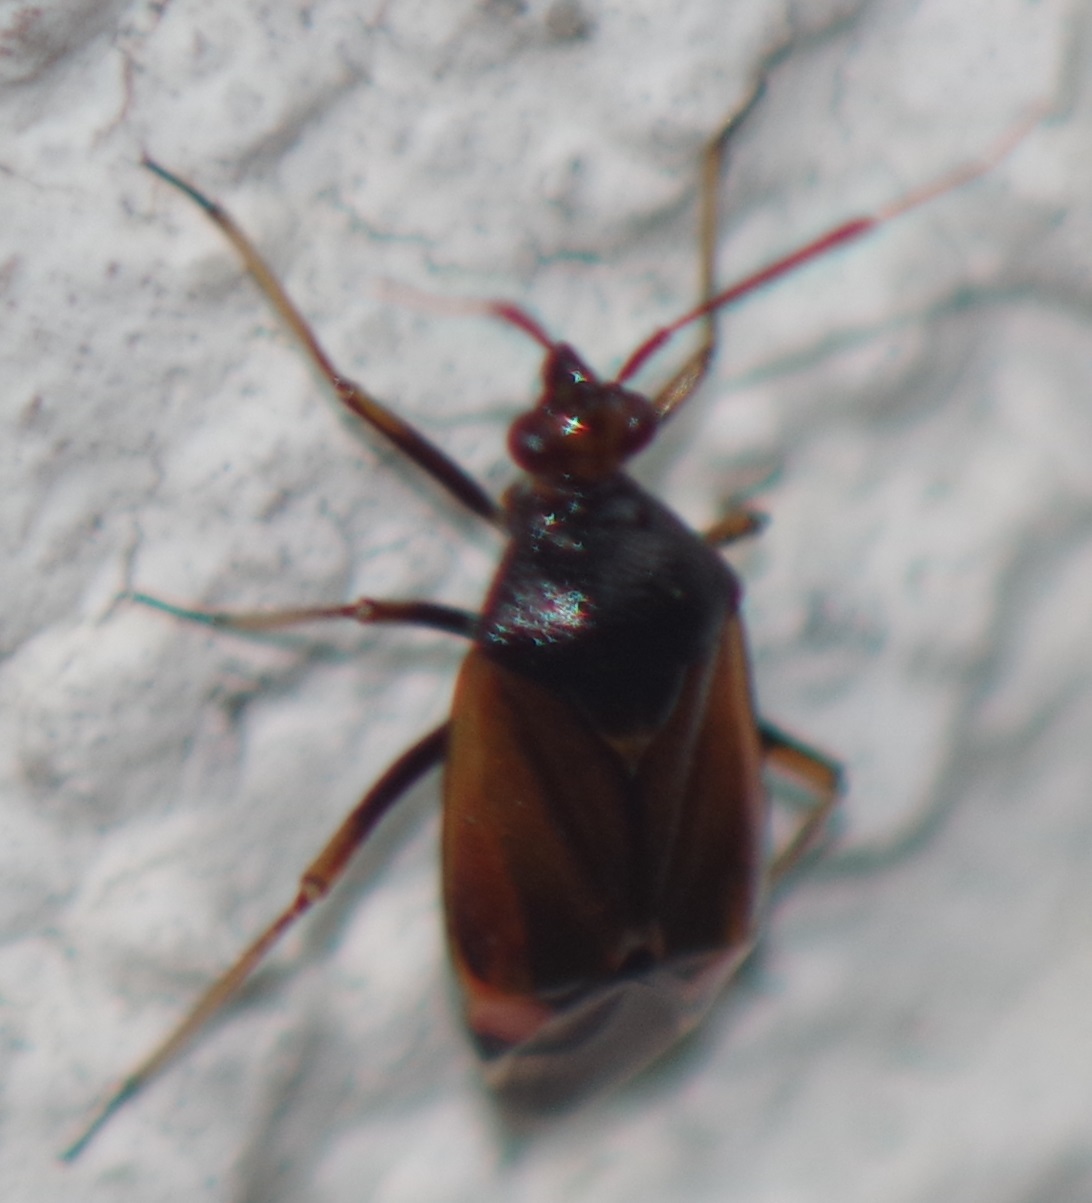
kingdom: Animalia
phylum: Arthropoda
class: Insecta
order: Hemiptera
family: Miridae
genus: Deraeocoris
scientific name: Deraeocoris ruber
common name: Plant bug
